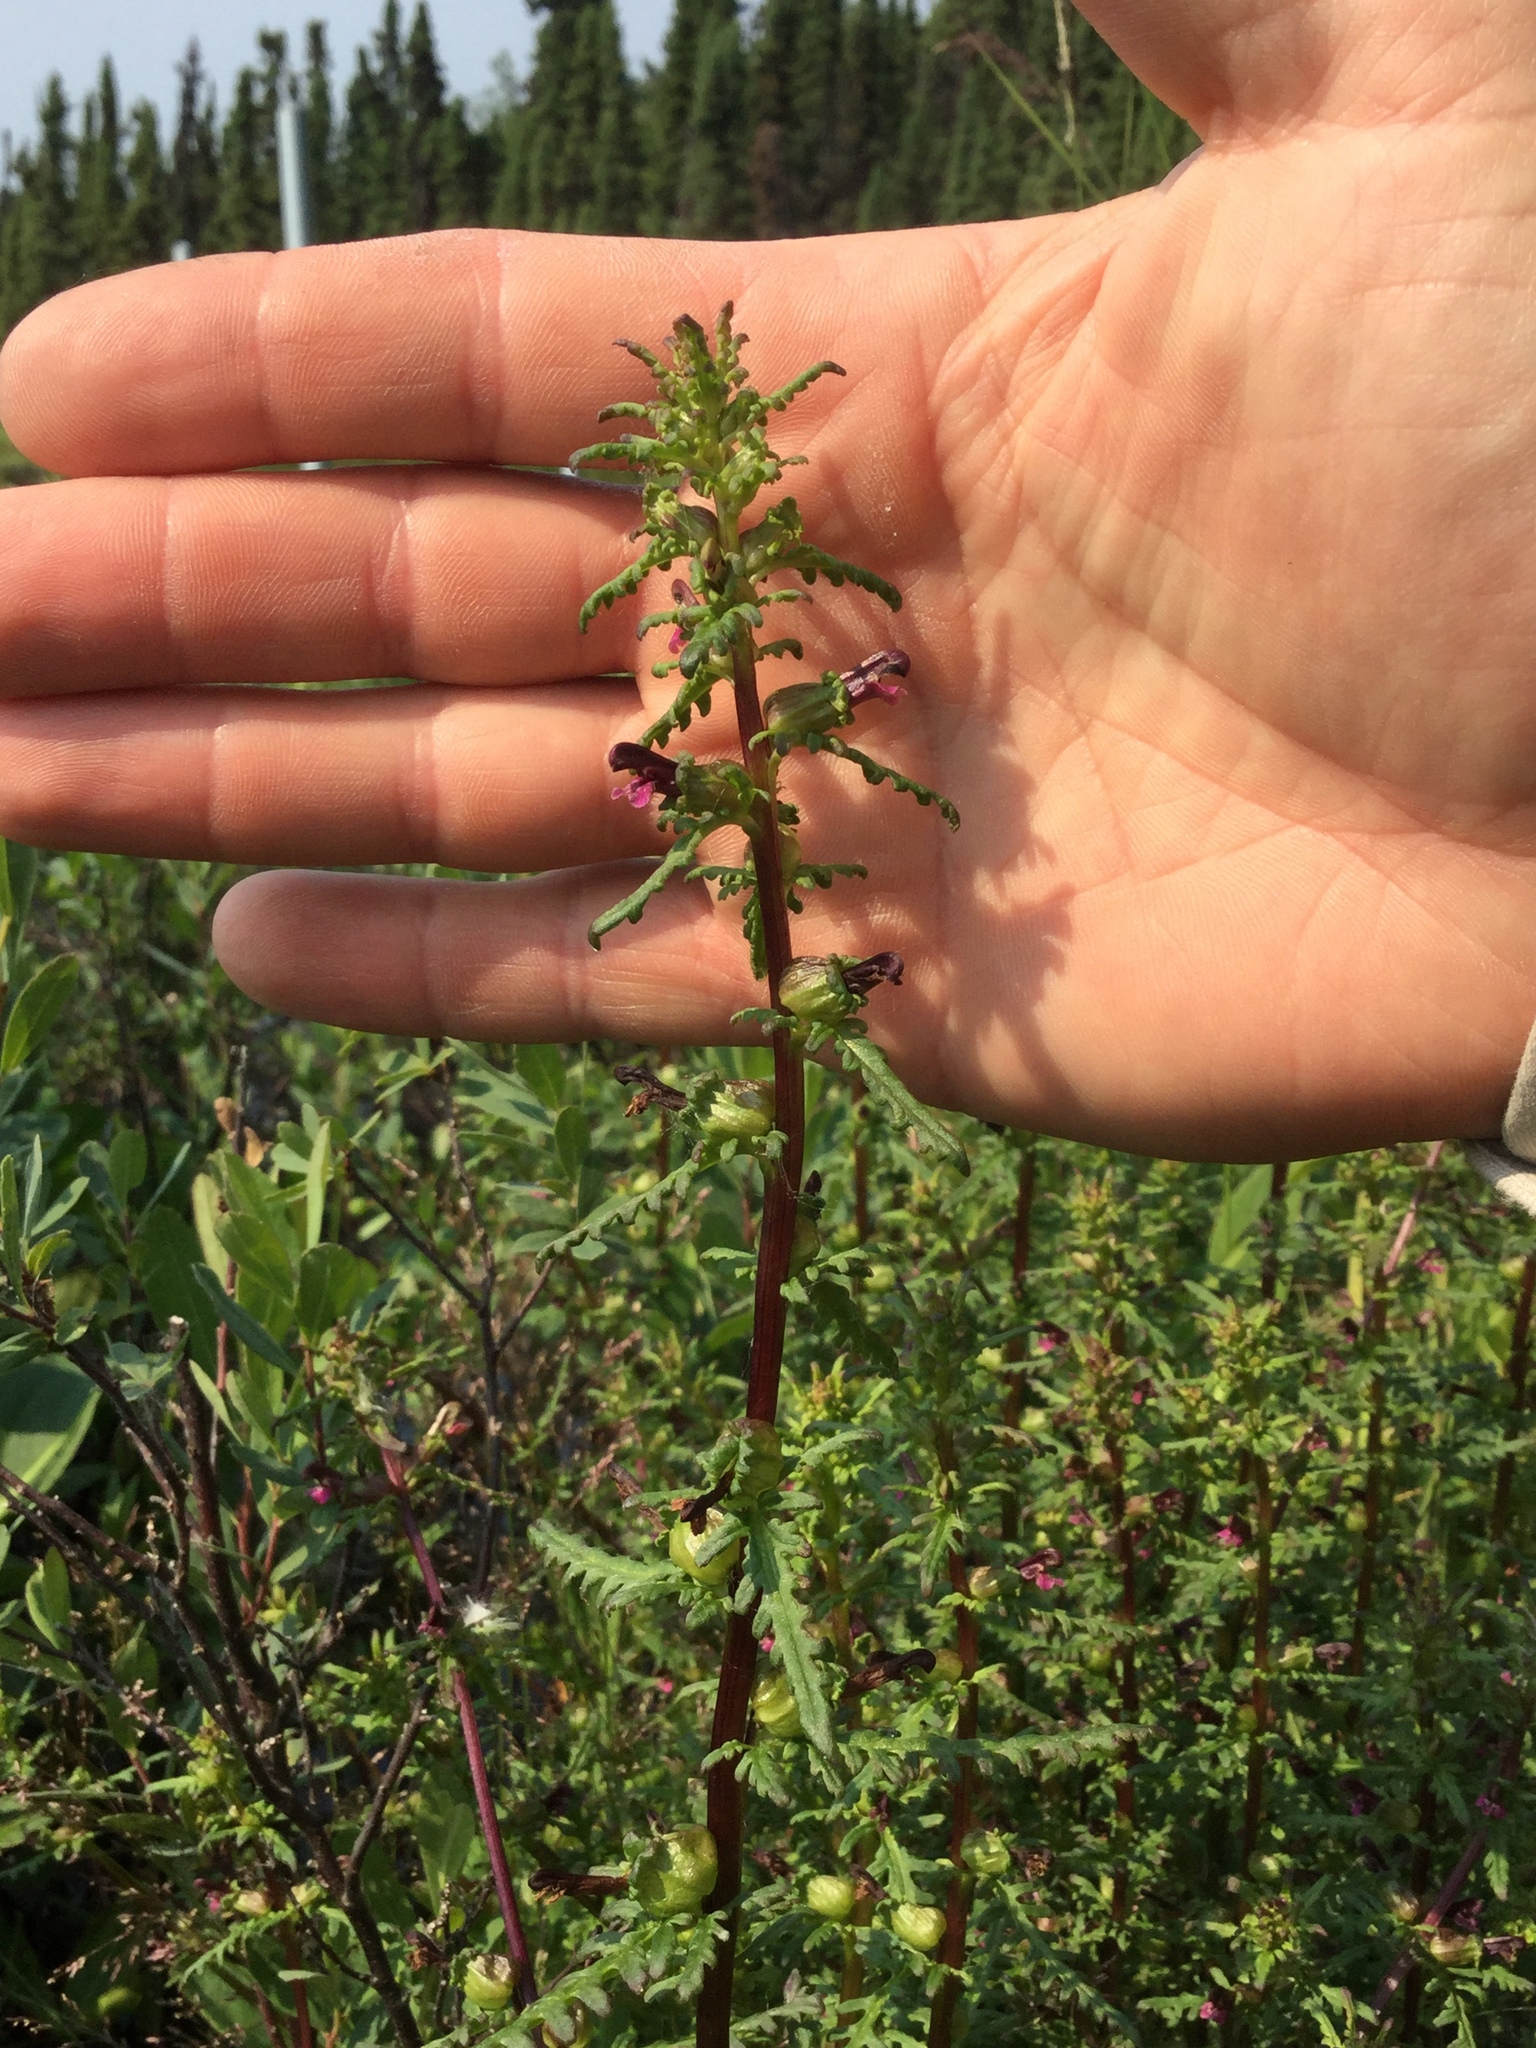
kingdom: Plantae
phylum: Tracheophyta
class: Magnoliopsida
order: Lamiales
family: Orobanchaceae
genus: Pedicularis
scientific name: Pedicularis parviflora
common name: Muskeg lousewort
